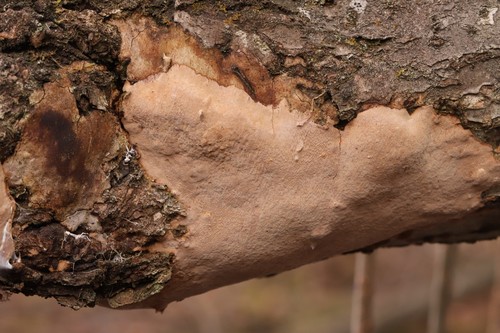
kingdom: Fungi
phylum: Basidiomycota
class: Agaricomycetes
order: Hymenochaetales
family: Hymenochaetaceae
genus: Fomitiporia
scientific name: Fomitiporia punctata
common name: Elbowpatch crust
